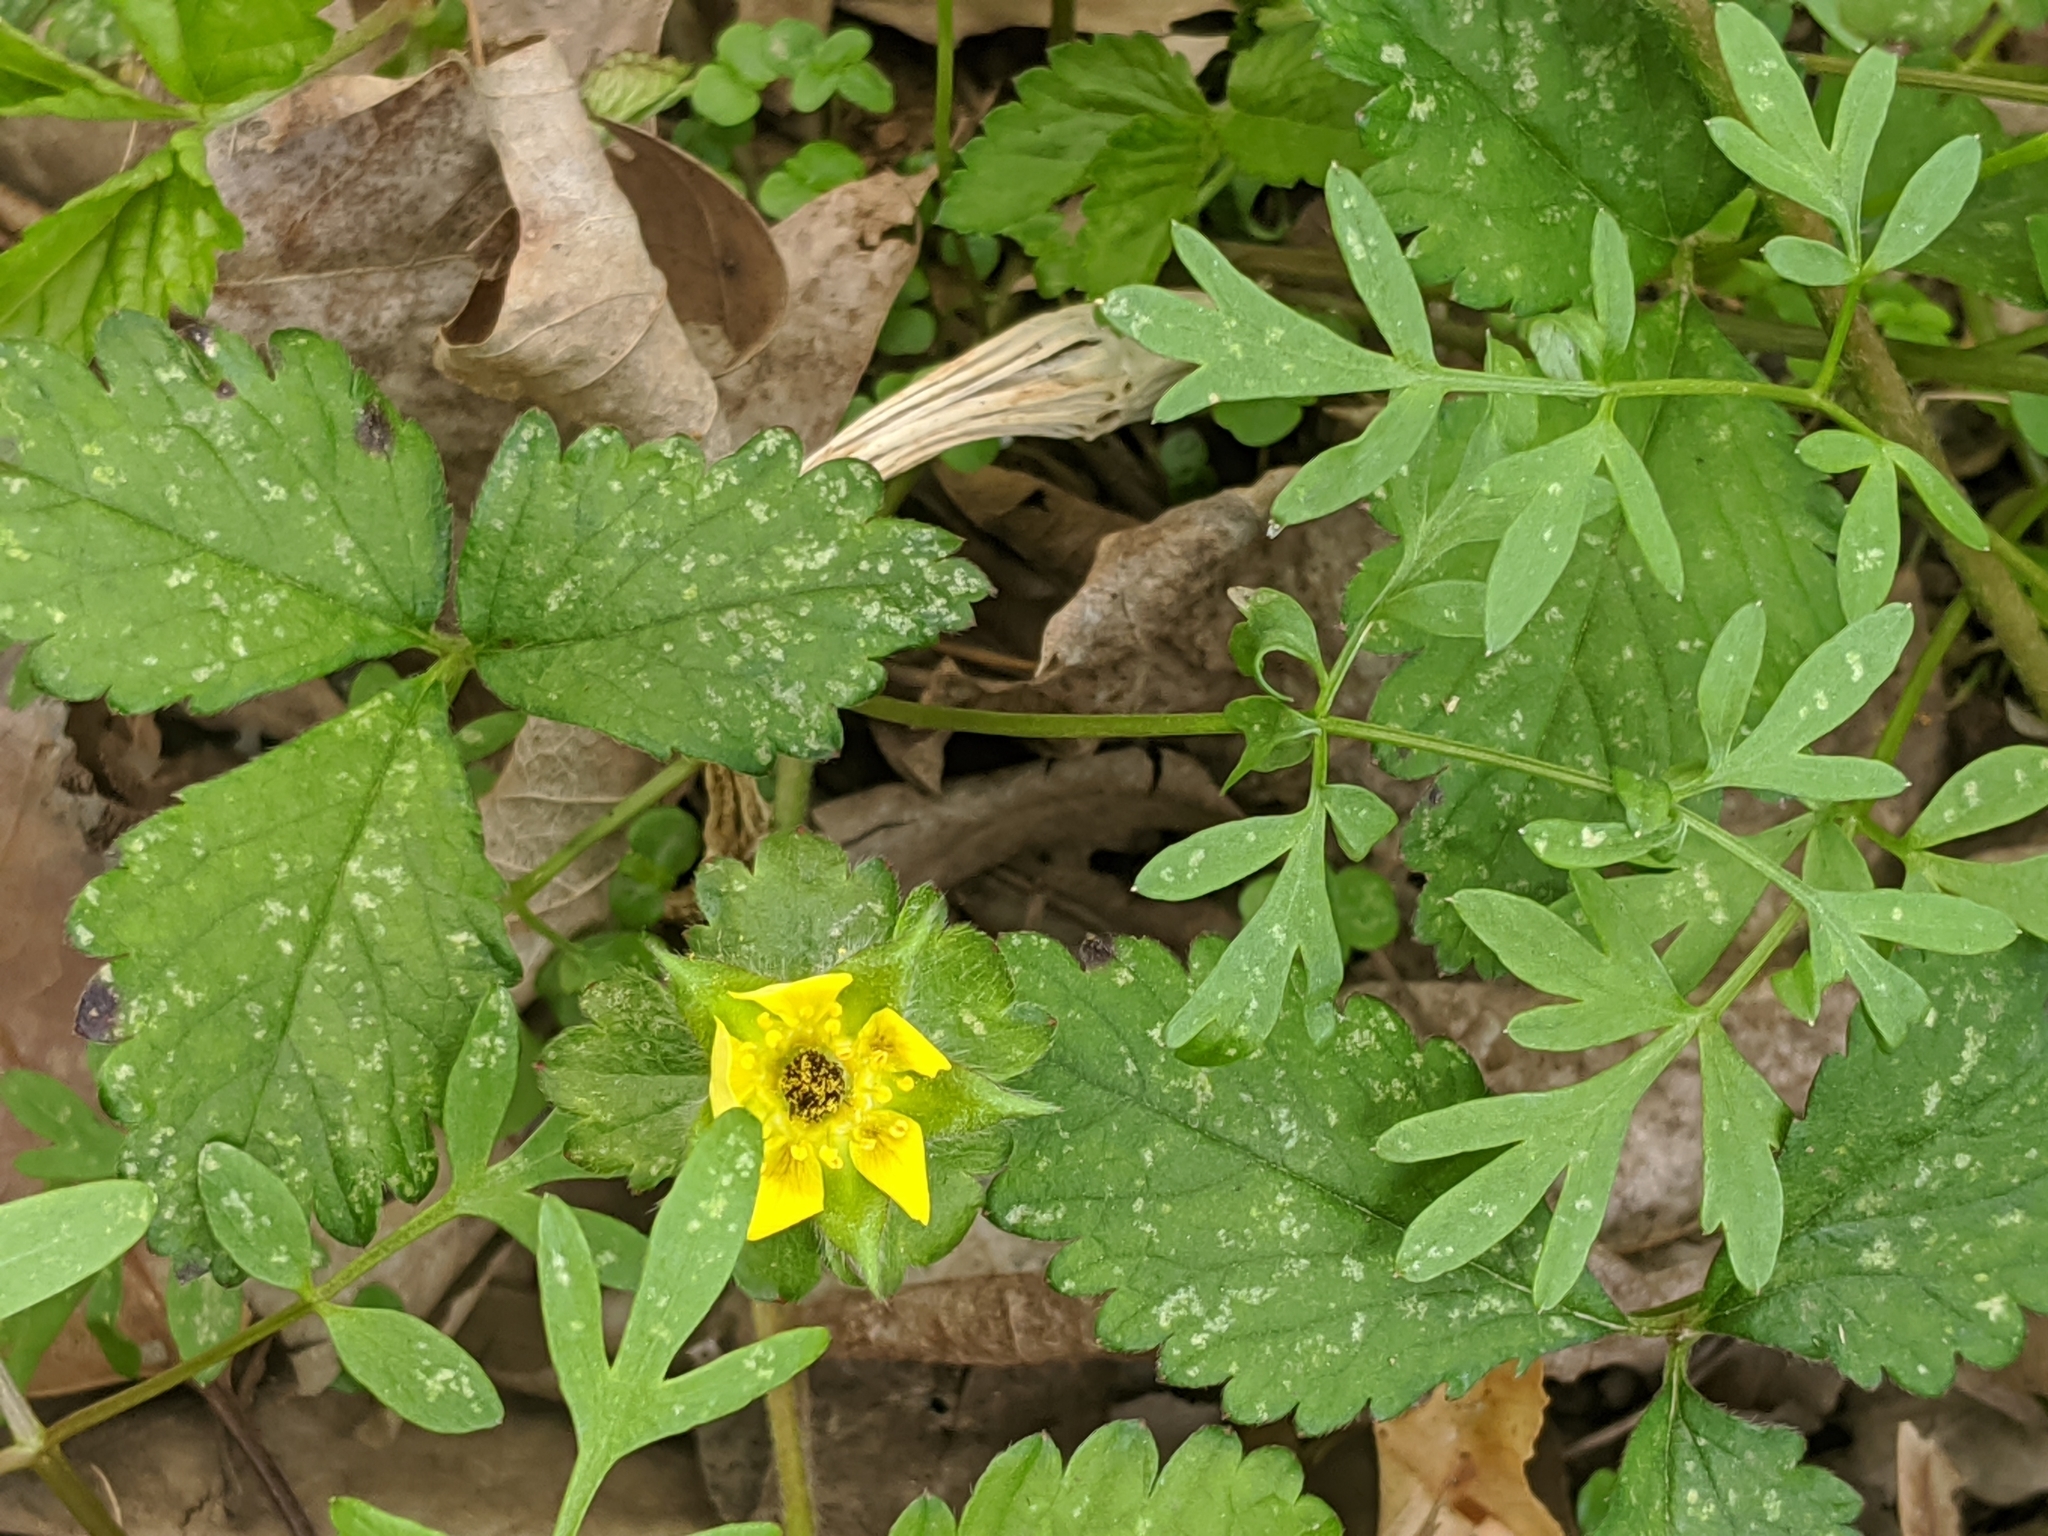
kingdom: Plantae
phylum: Tracheophyta
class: Magnoliopsida
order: Rosales
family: Rosaceae
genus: Potentilla
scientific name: Potentilla indica
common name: Yellow-flowered strawberry
